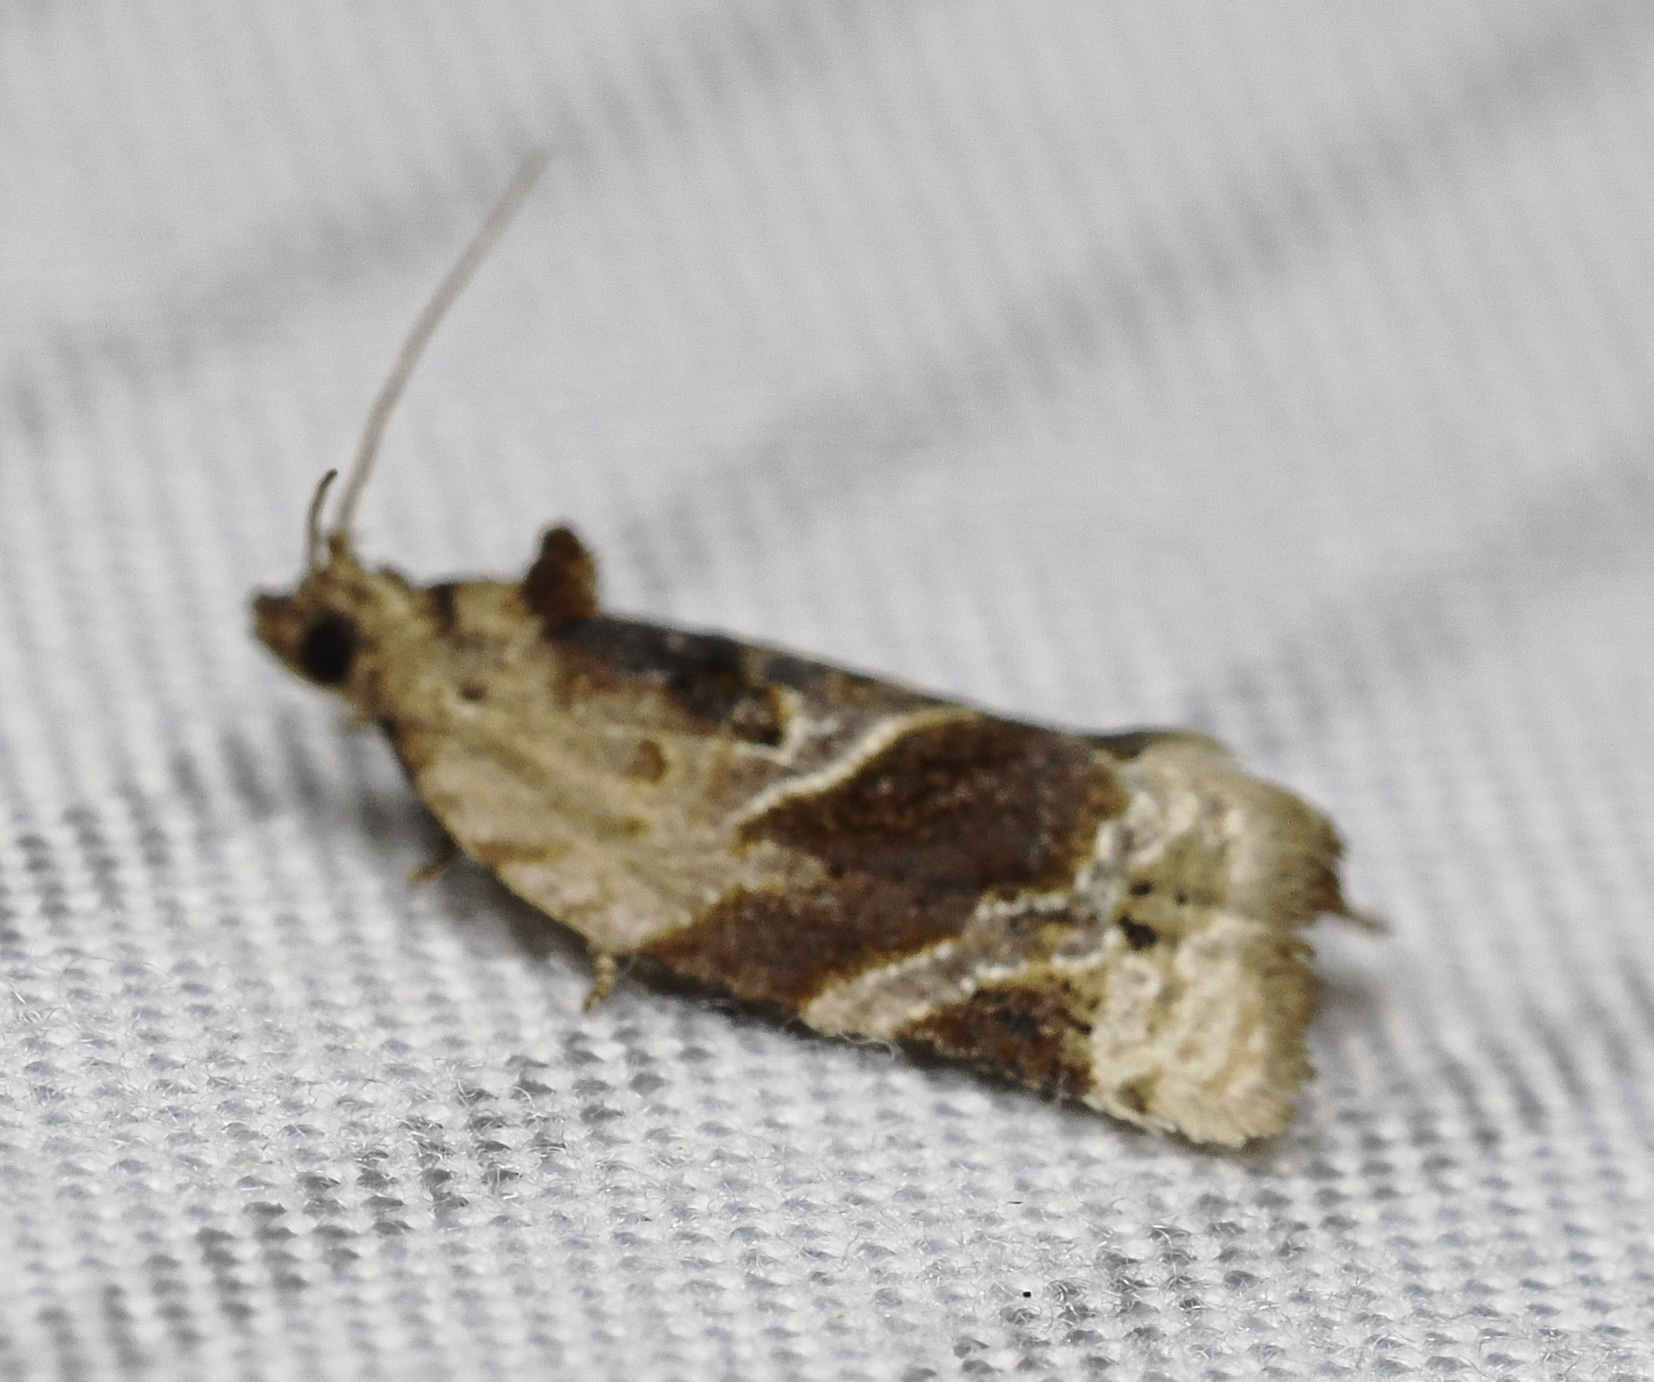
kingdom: Animalia
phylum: Arthropoda
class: Insecta
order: Lepidoptera
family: Tortricidae
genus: Argyrotaenia
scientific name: Argyrotaenia velutinana
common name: Red-banded leafroller moth
